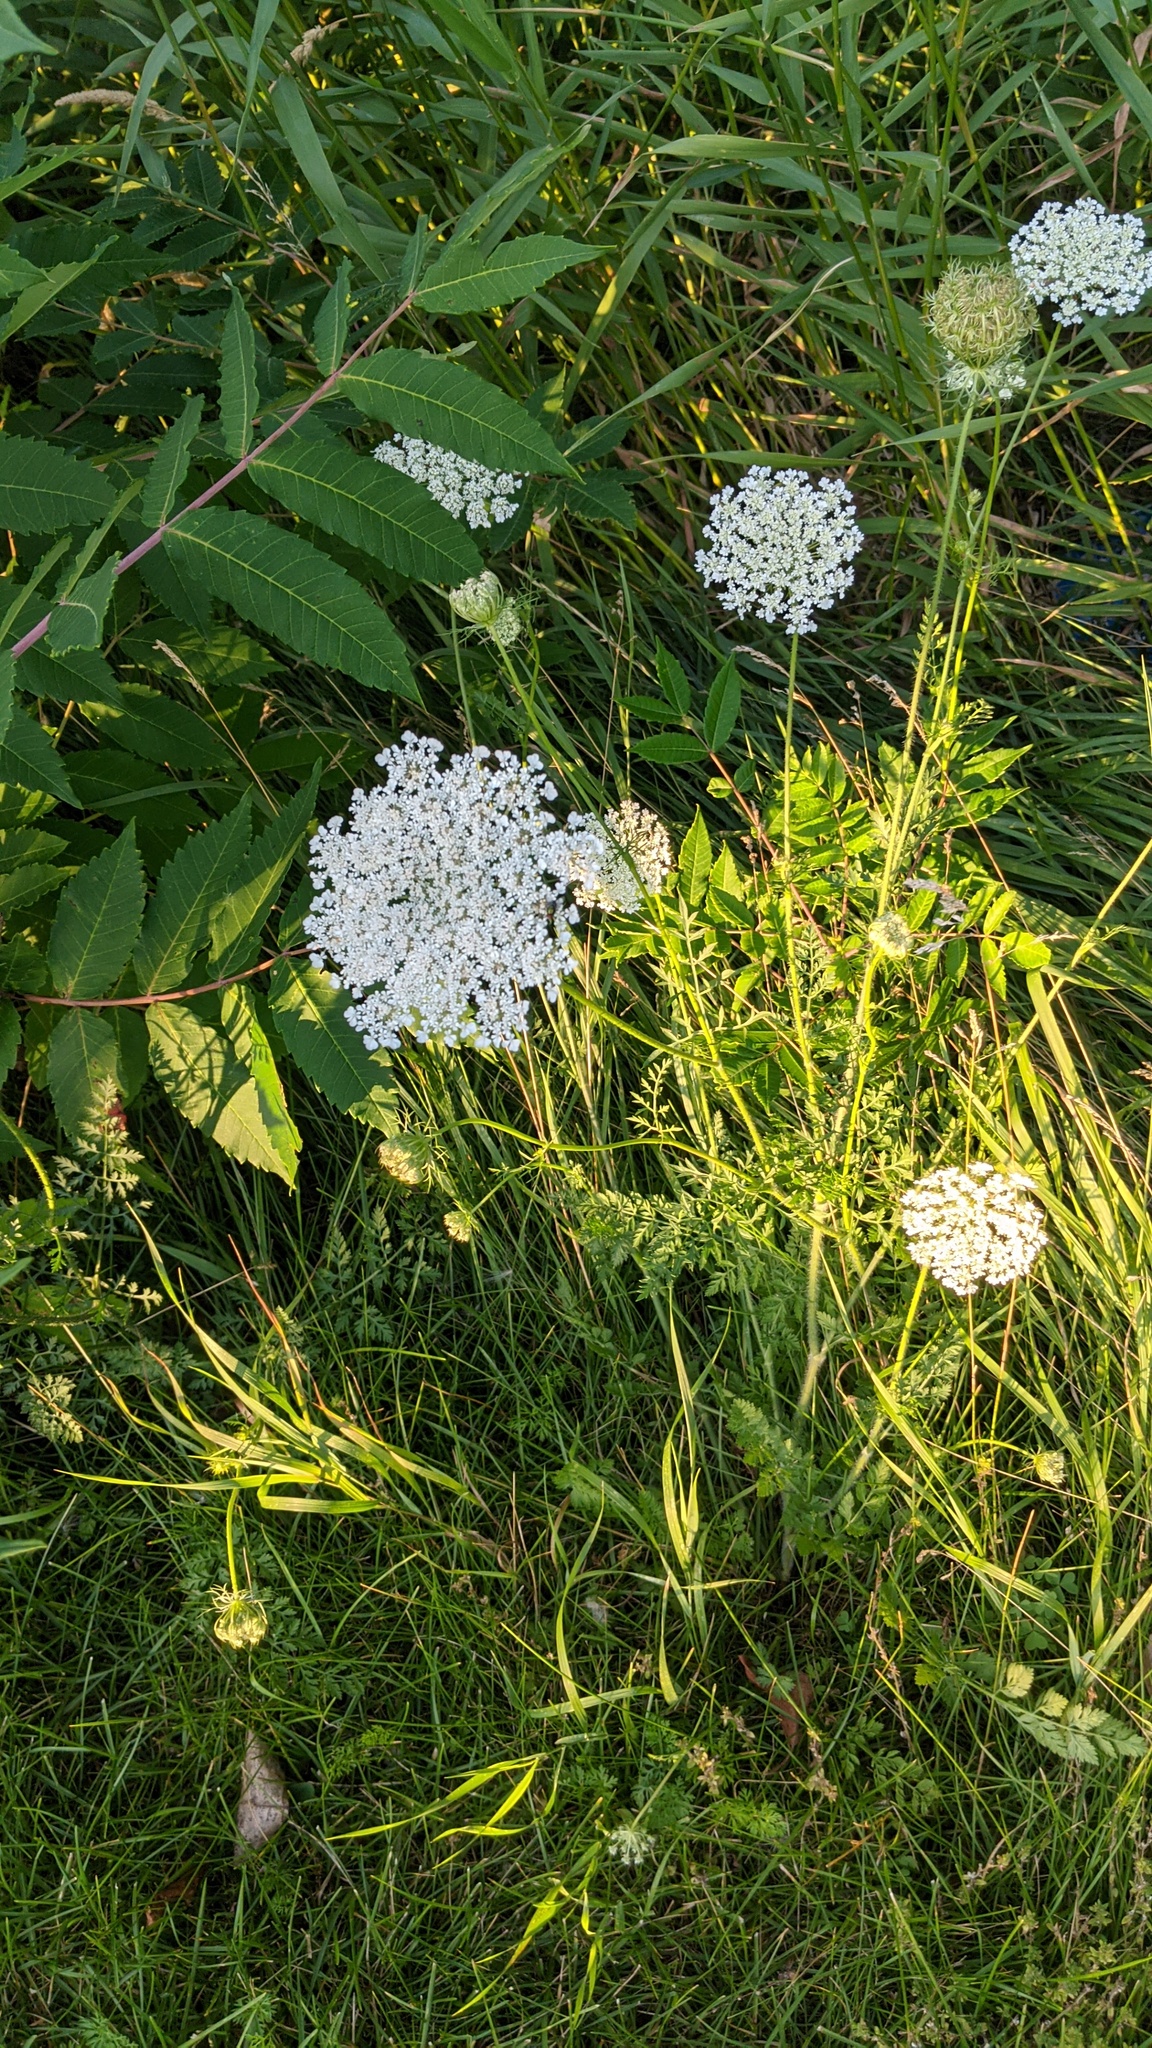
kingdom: Plantae
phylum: Tracheophyta
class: Magnoliopsida
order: Apiales
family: Apiaceae
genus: Daucus
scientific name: Daucus carota
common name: Wild carrot
